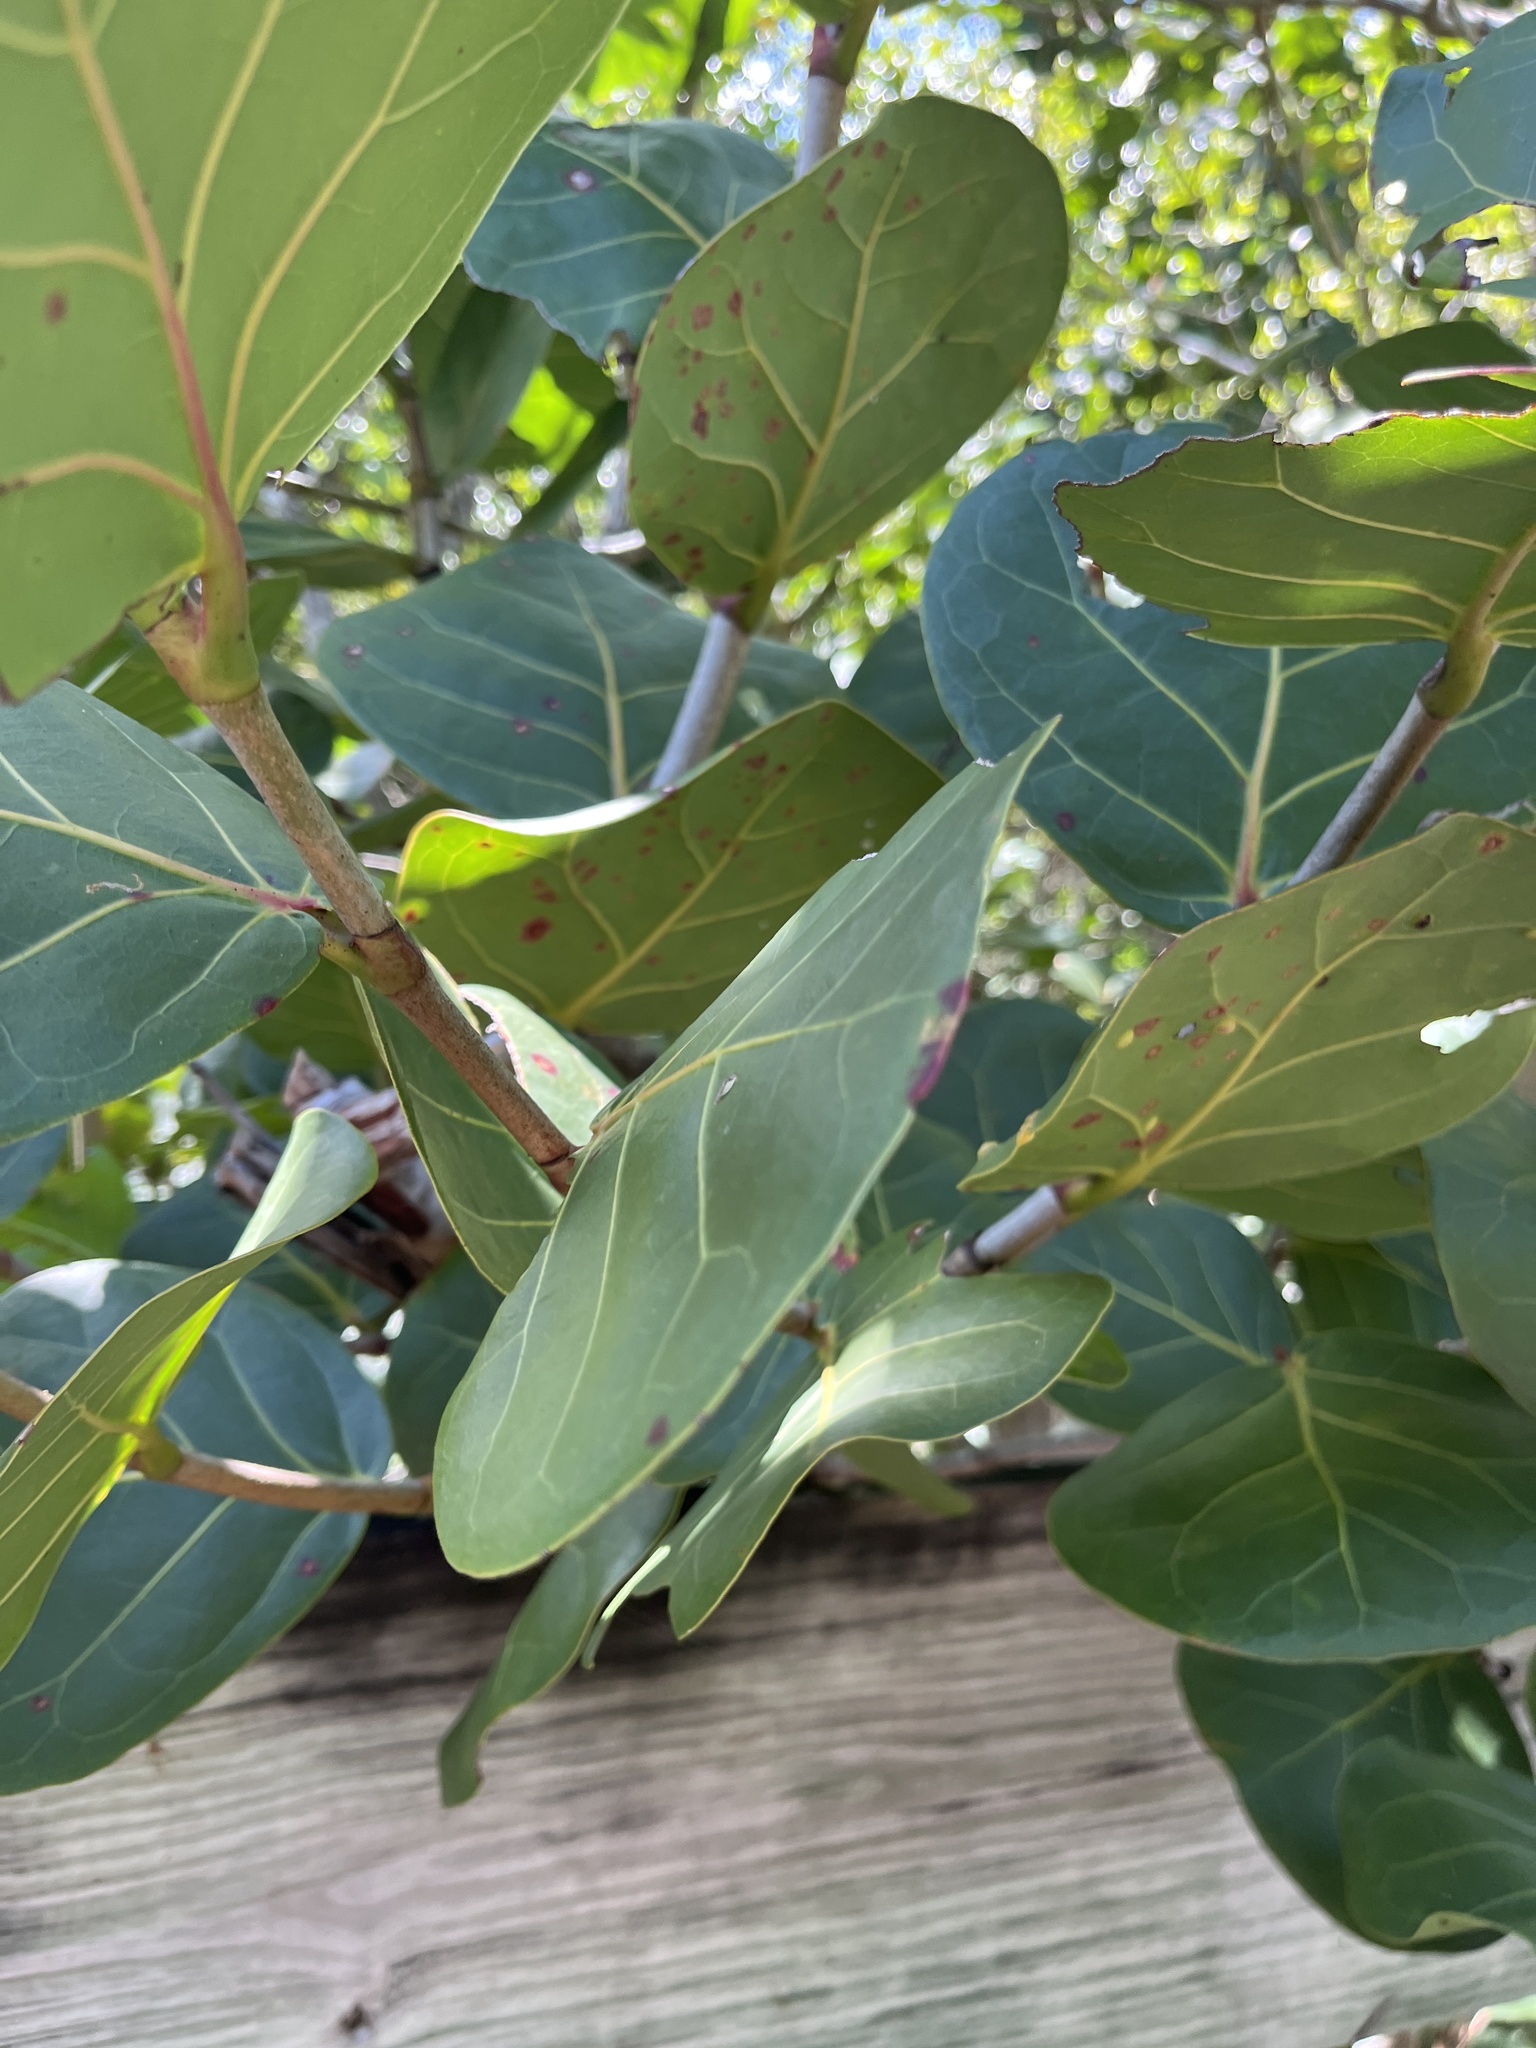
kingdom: Plantae
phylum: Tracheophyta
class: Magnoliopsida
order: Caryophyllales
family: Polygonaceae
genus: Coccoloba
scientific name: Coccoloba uvifera
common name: Seagrape
